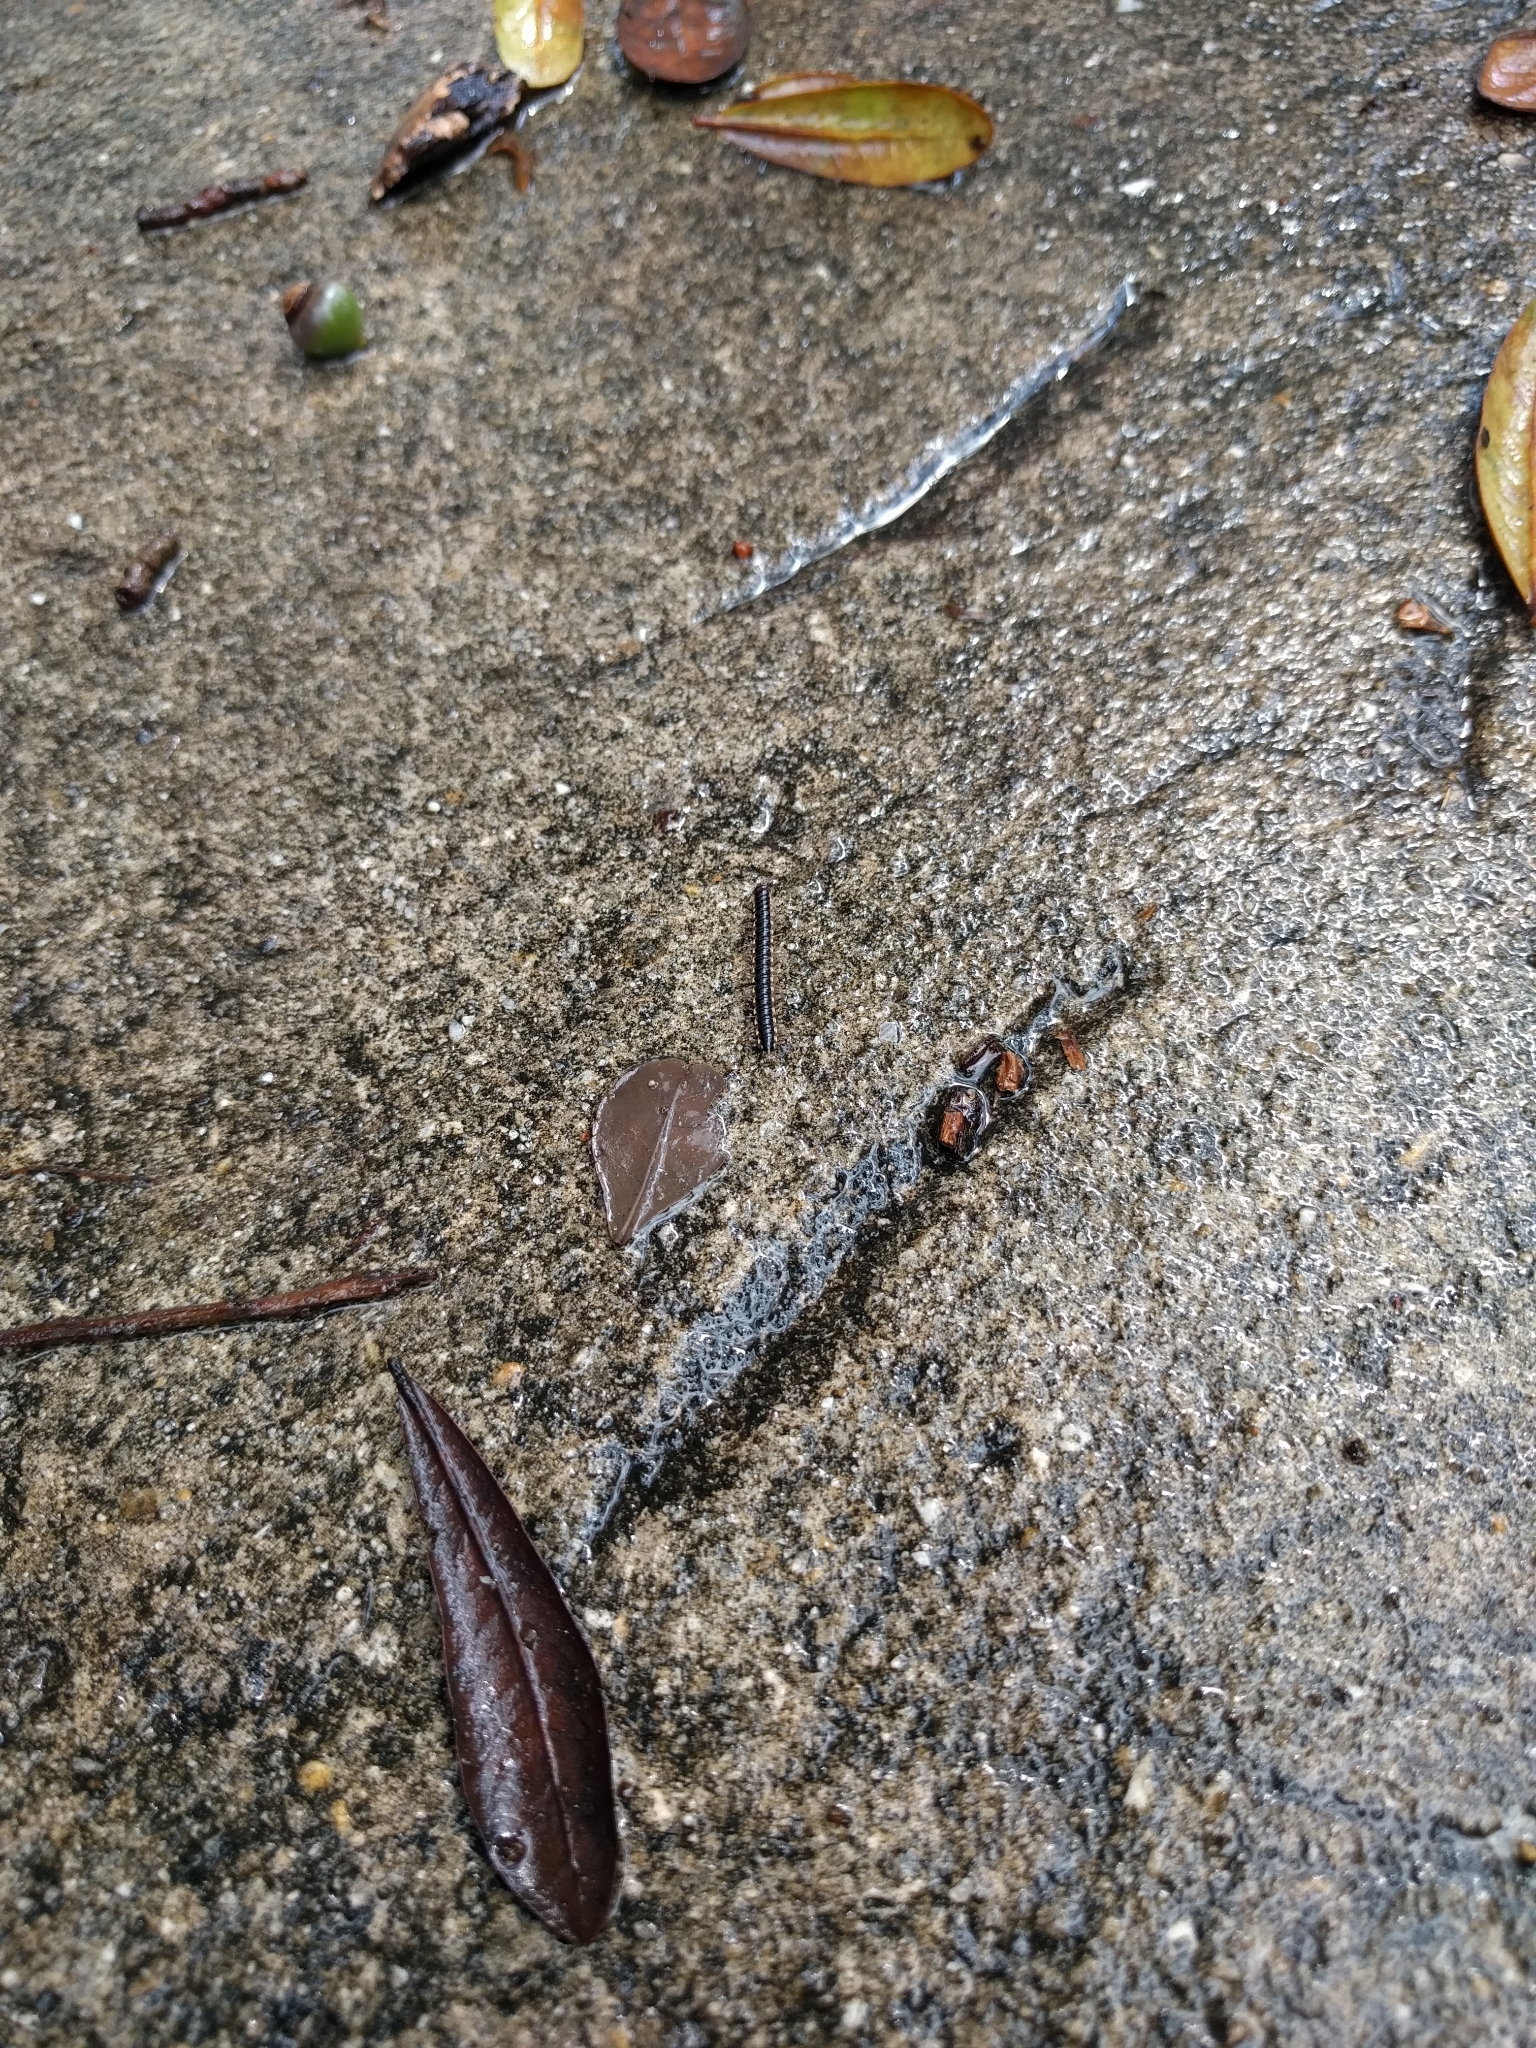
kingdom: Animalia
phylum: Arthropoda
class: Diplopoda
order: Polydesmida
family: Paradoxosomatidae
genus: Orthomorpha
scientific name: Orthomorpha coarctata
